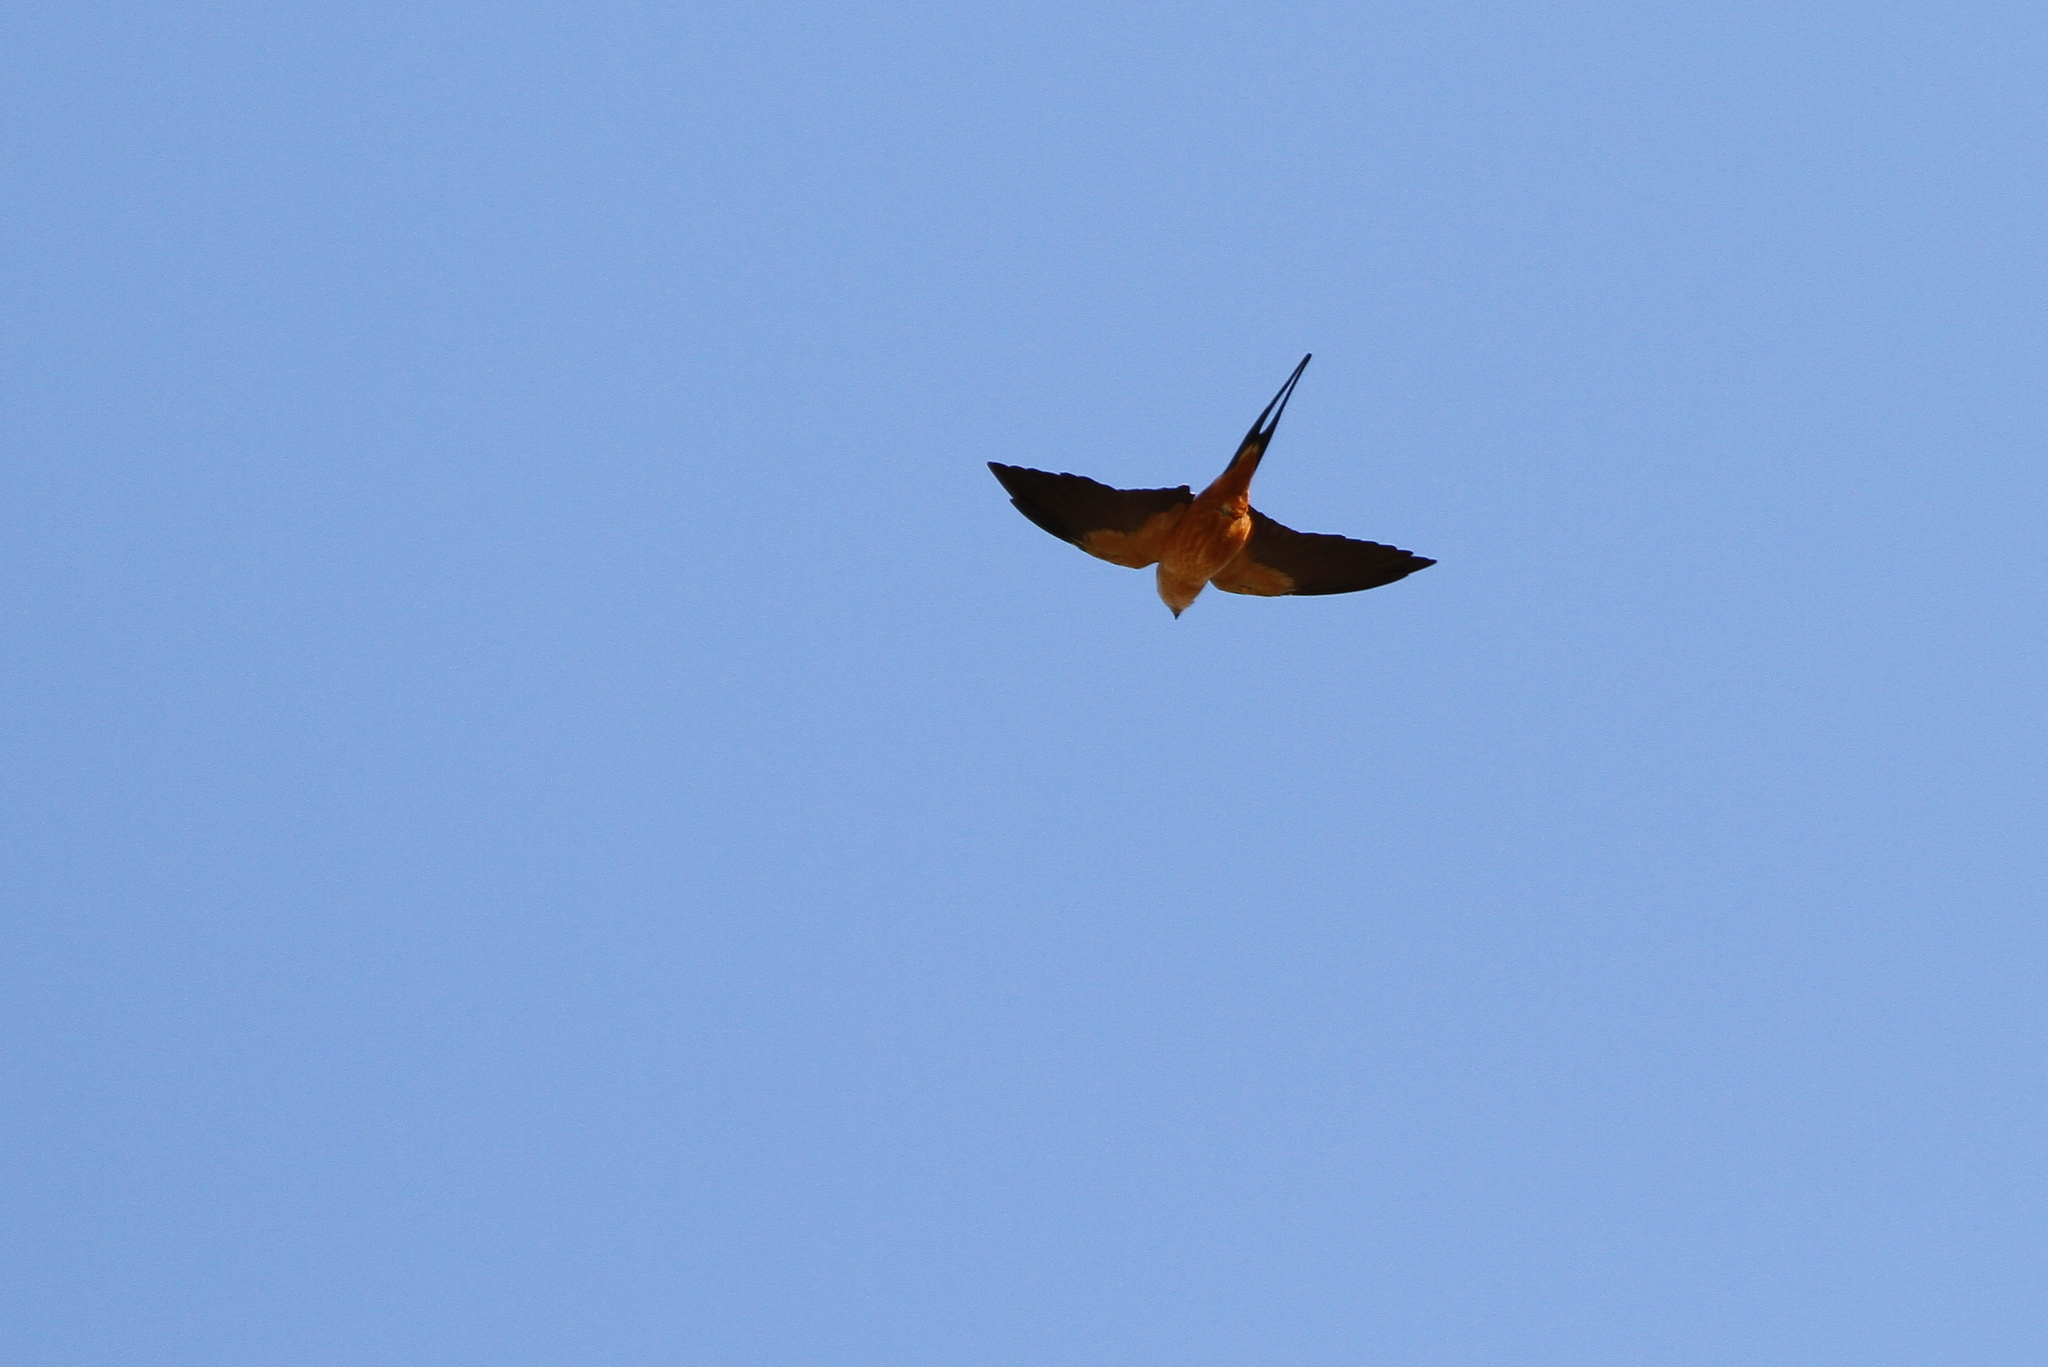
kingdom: Animalia
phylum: Chordata
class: Aves
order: Passeriformes
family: Hirundinidae
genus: Cecropis
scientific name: Cecropis semirufa
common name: Red-breasted swallow
